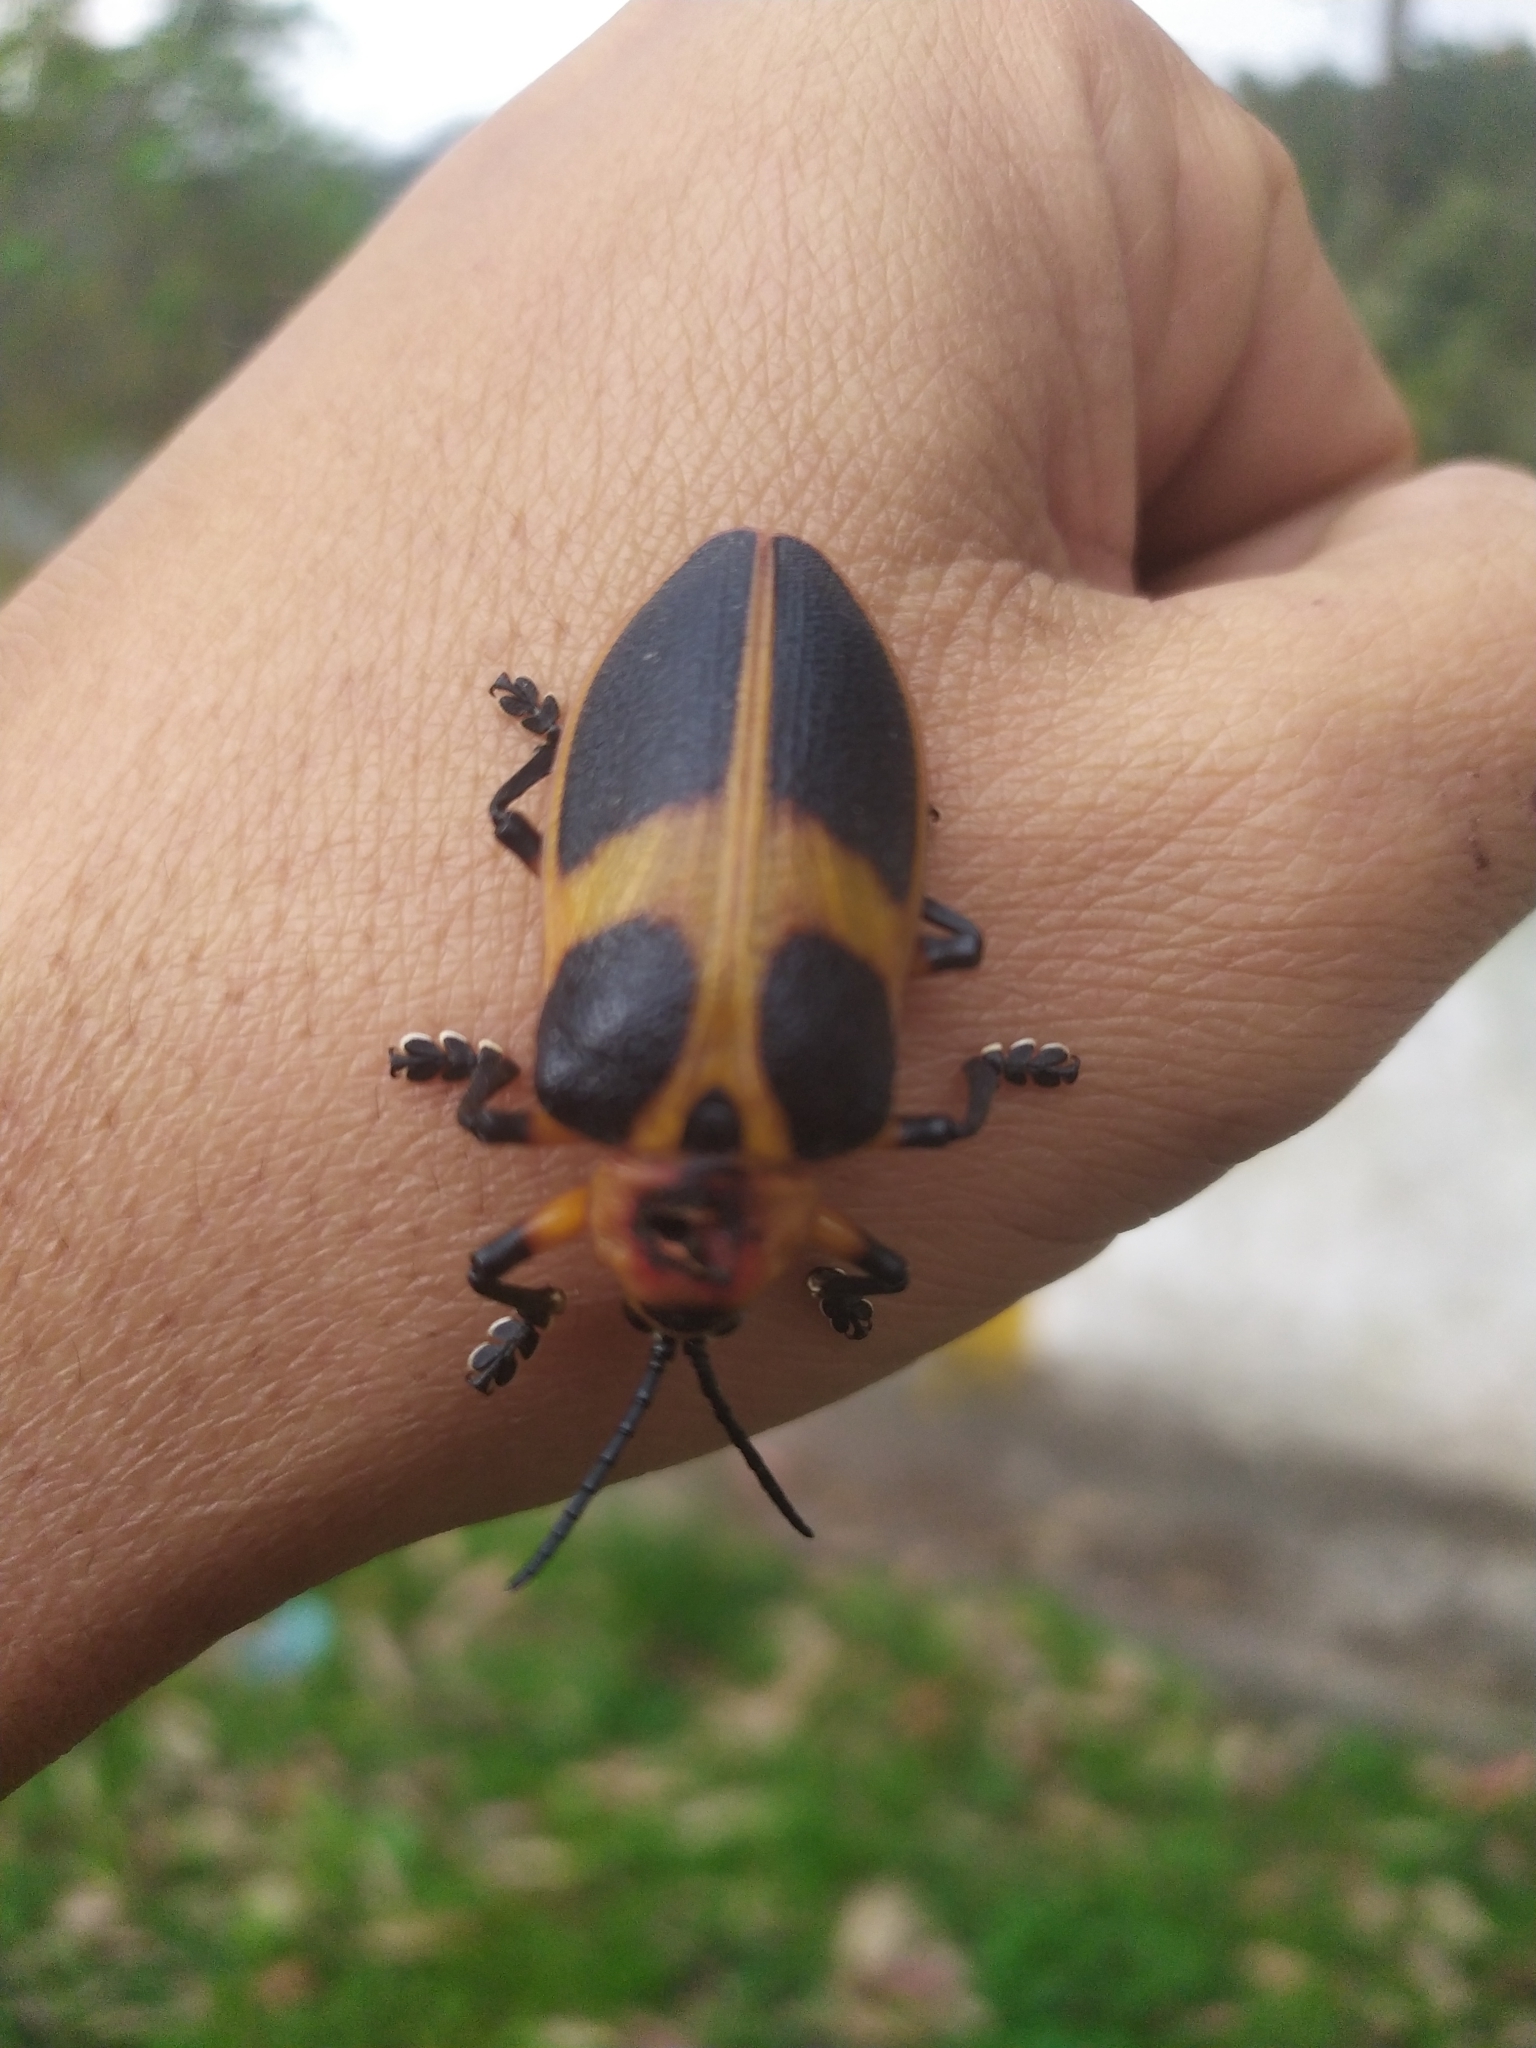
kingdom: Animalia
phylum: Arthropoda
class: Insecta
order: Coleoptera
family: Chrysomelidae
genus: Mecistomela
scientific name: Mecistomela marginata
